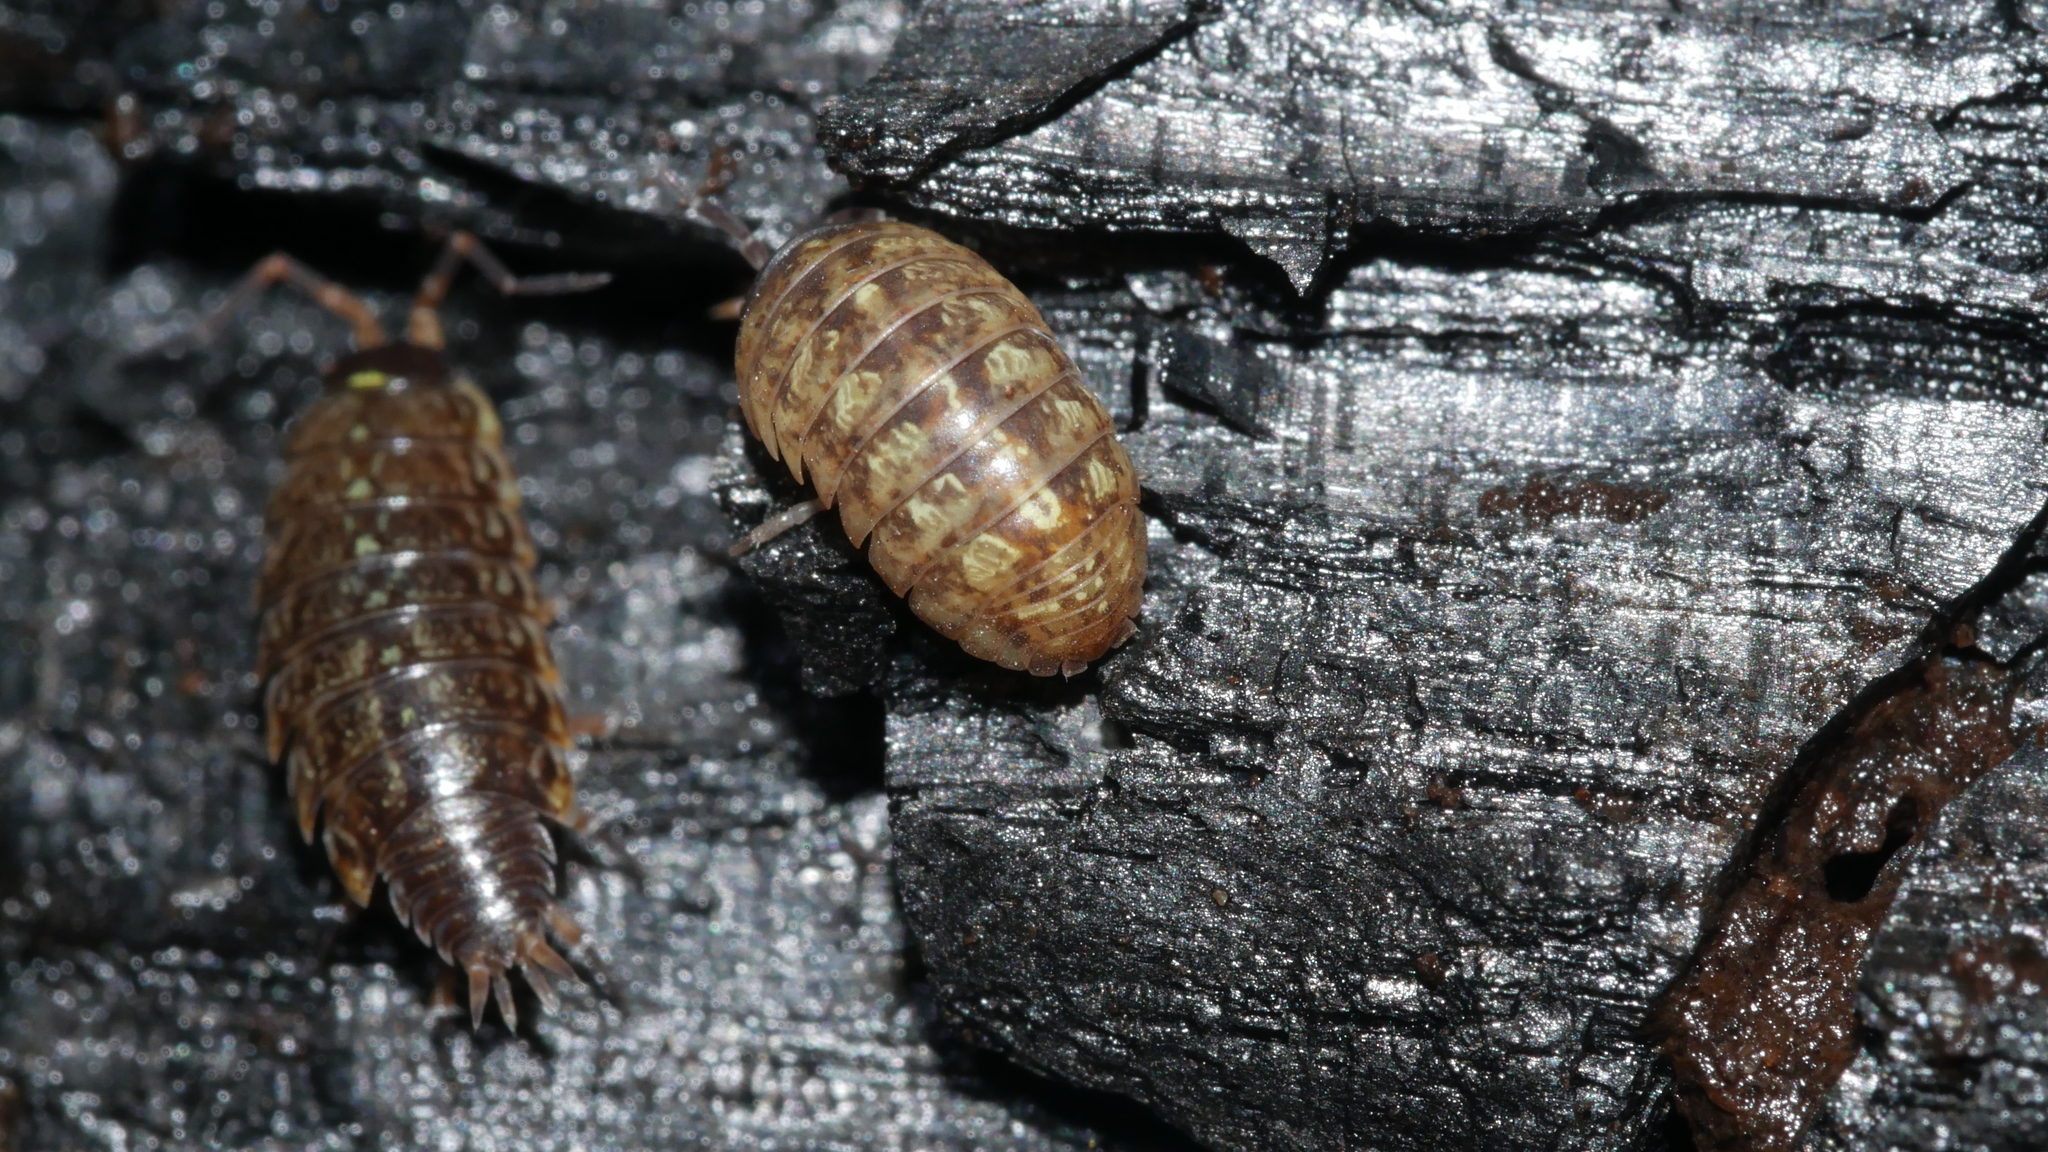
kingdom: Animalia
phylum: Arthropoda
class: Malacostraca
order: Isopoda
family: Philosciidae
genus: Philoscia
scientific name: Philoscia muscorum
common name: Common striped woodlouse
